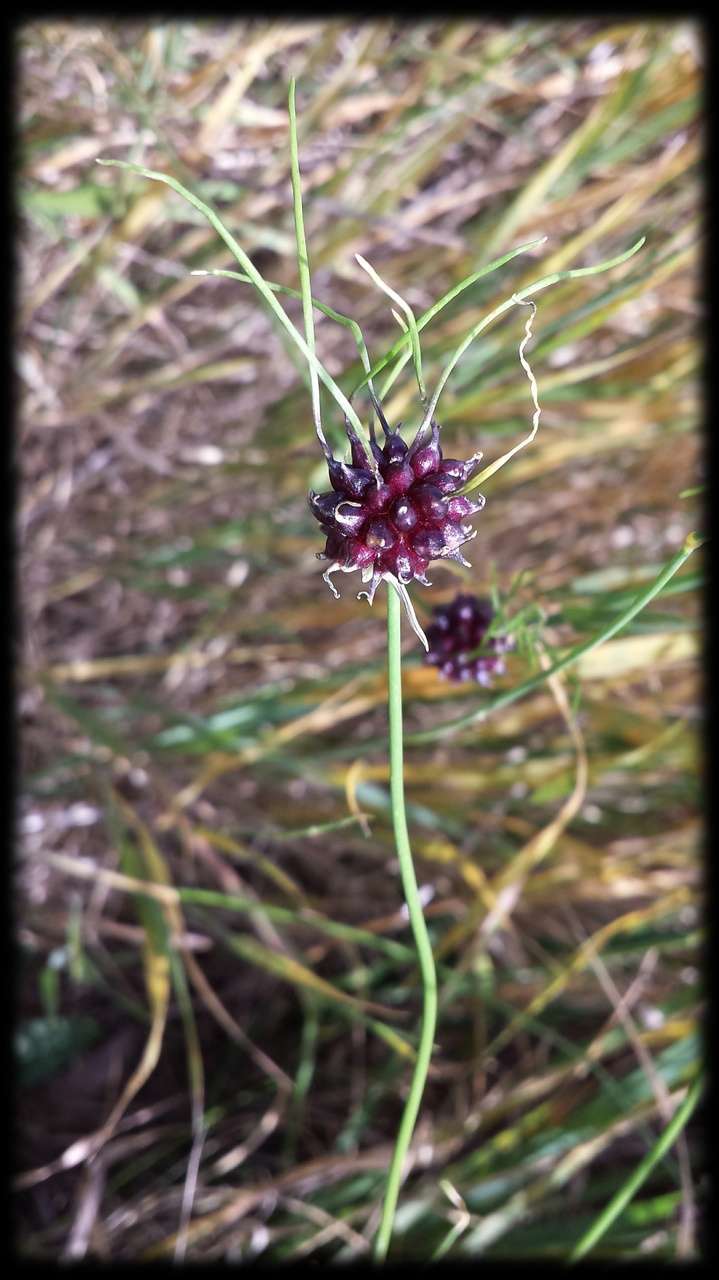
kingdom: Plantae
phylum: Tracheophyta
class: Liliopsida
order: Asparagales
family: Amaryllidaceae
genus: Allium
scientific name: Allium vineale
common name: Crow garlic
